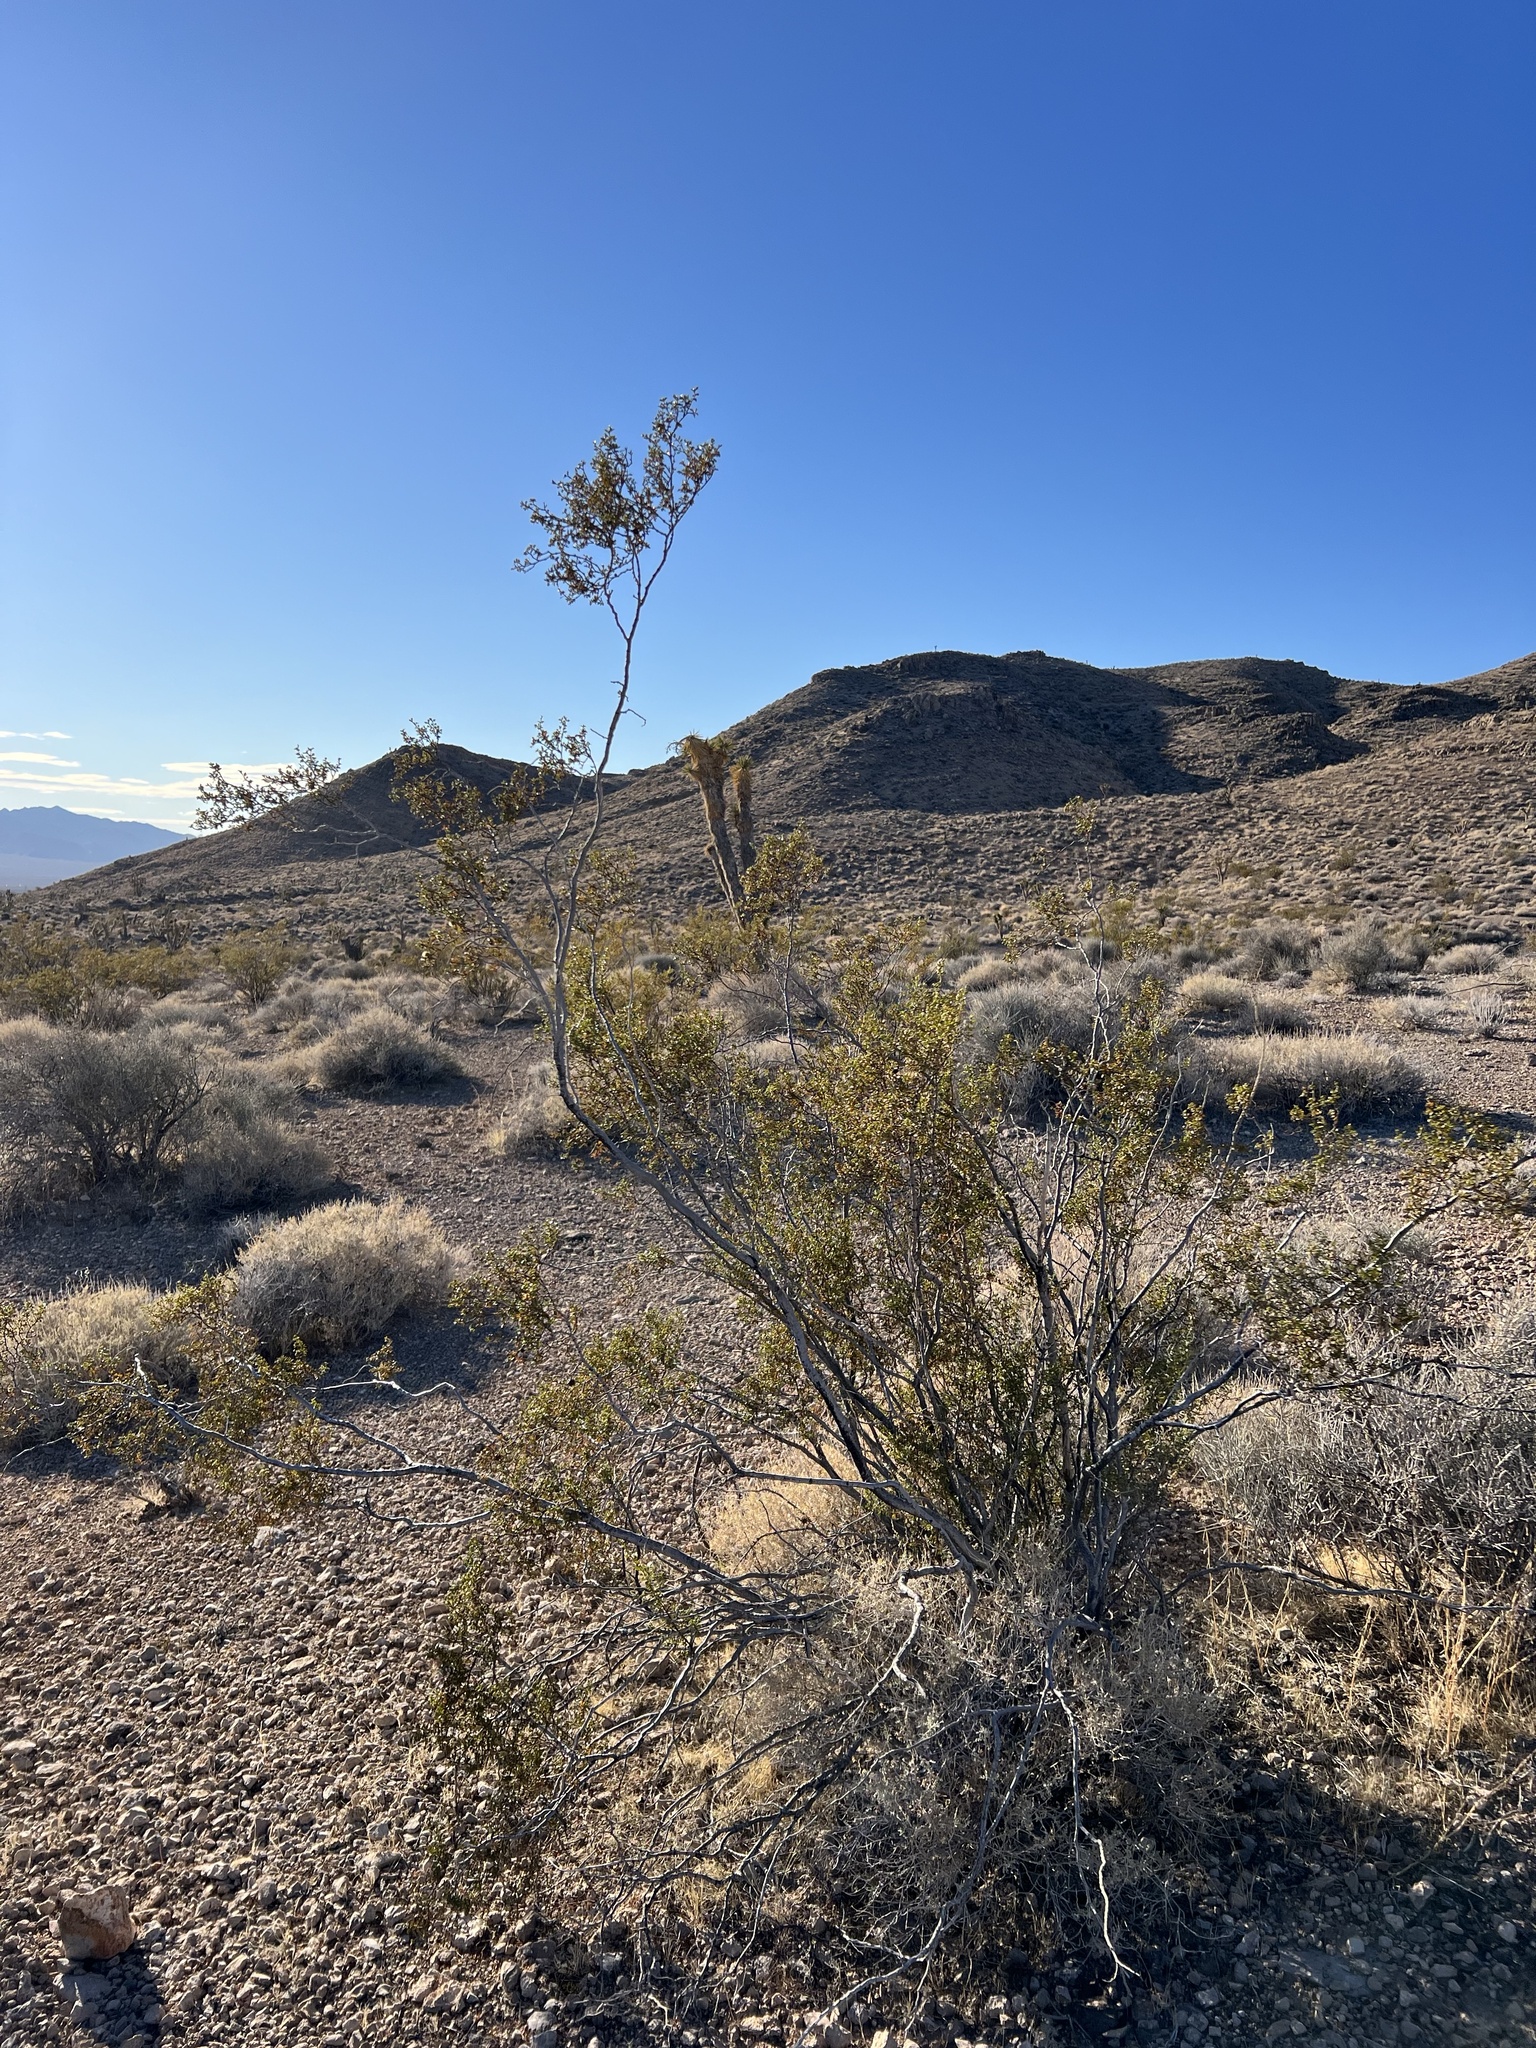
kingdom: Plantae
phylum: Tracheophyta
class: Magnoliopsida
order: Zygophyllales
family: Zygophyllaceae
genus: Larrea
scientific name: Larrea tridentata
